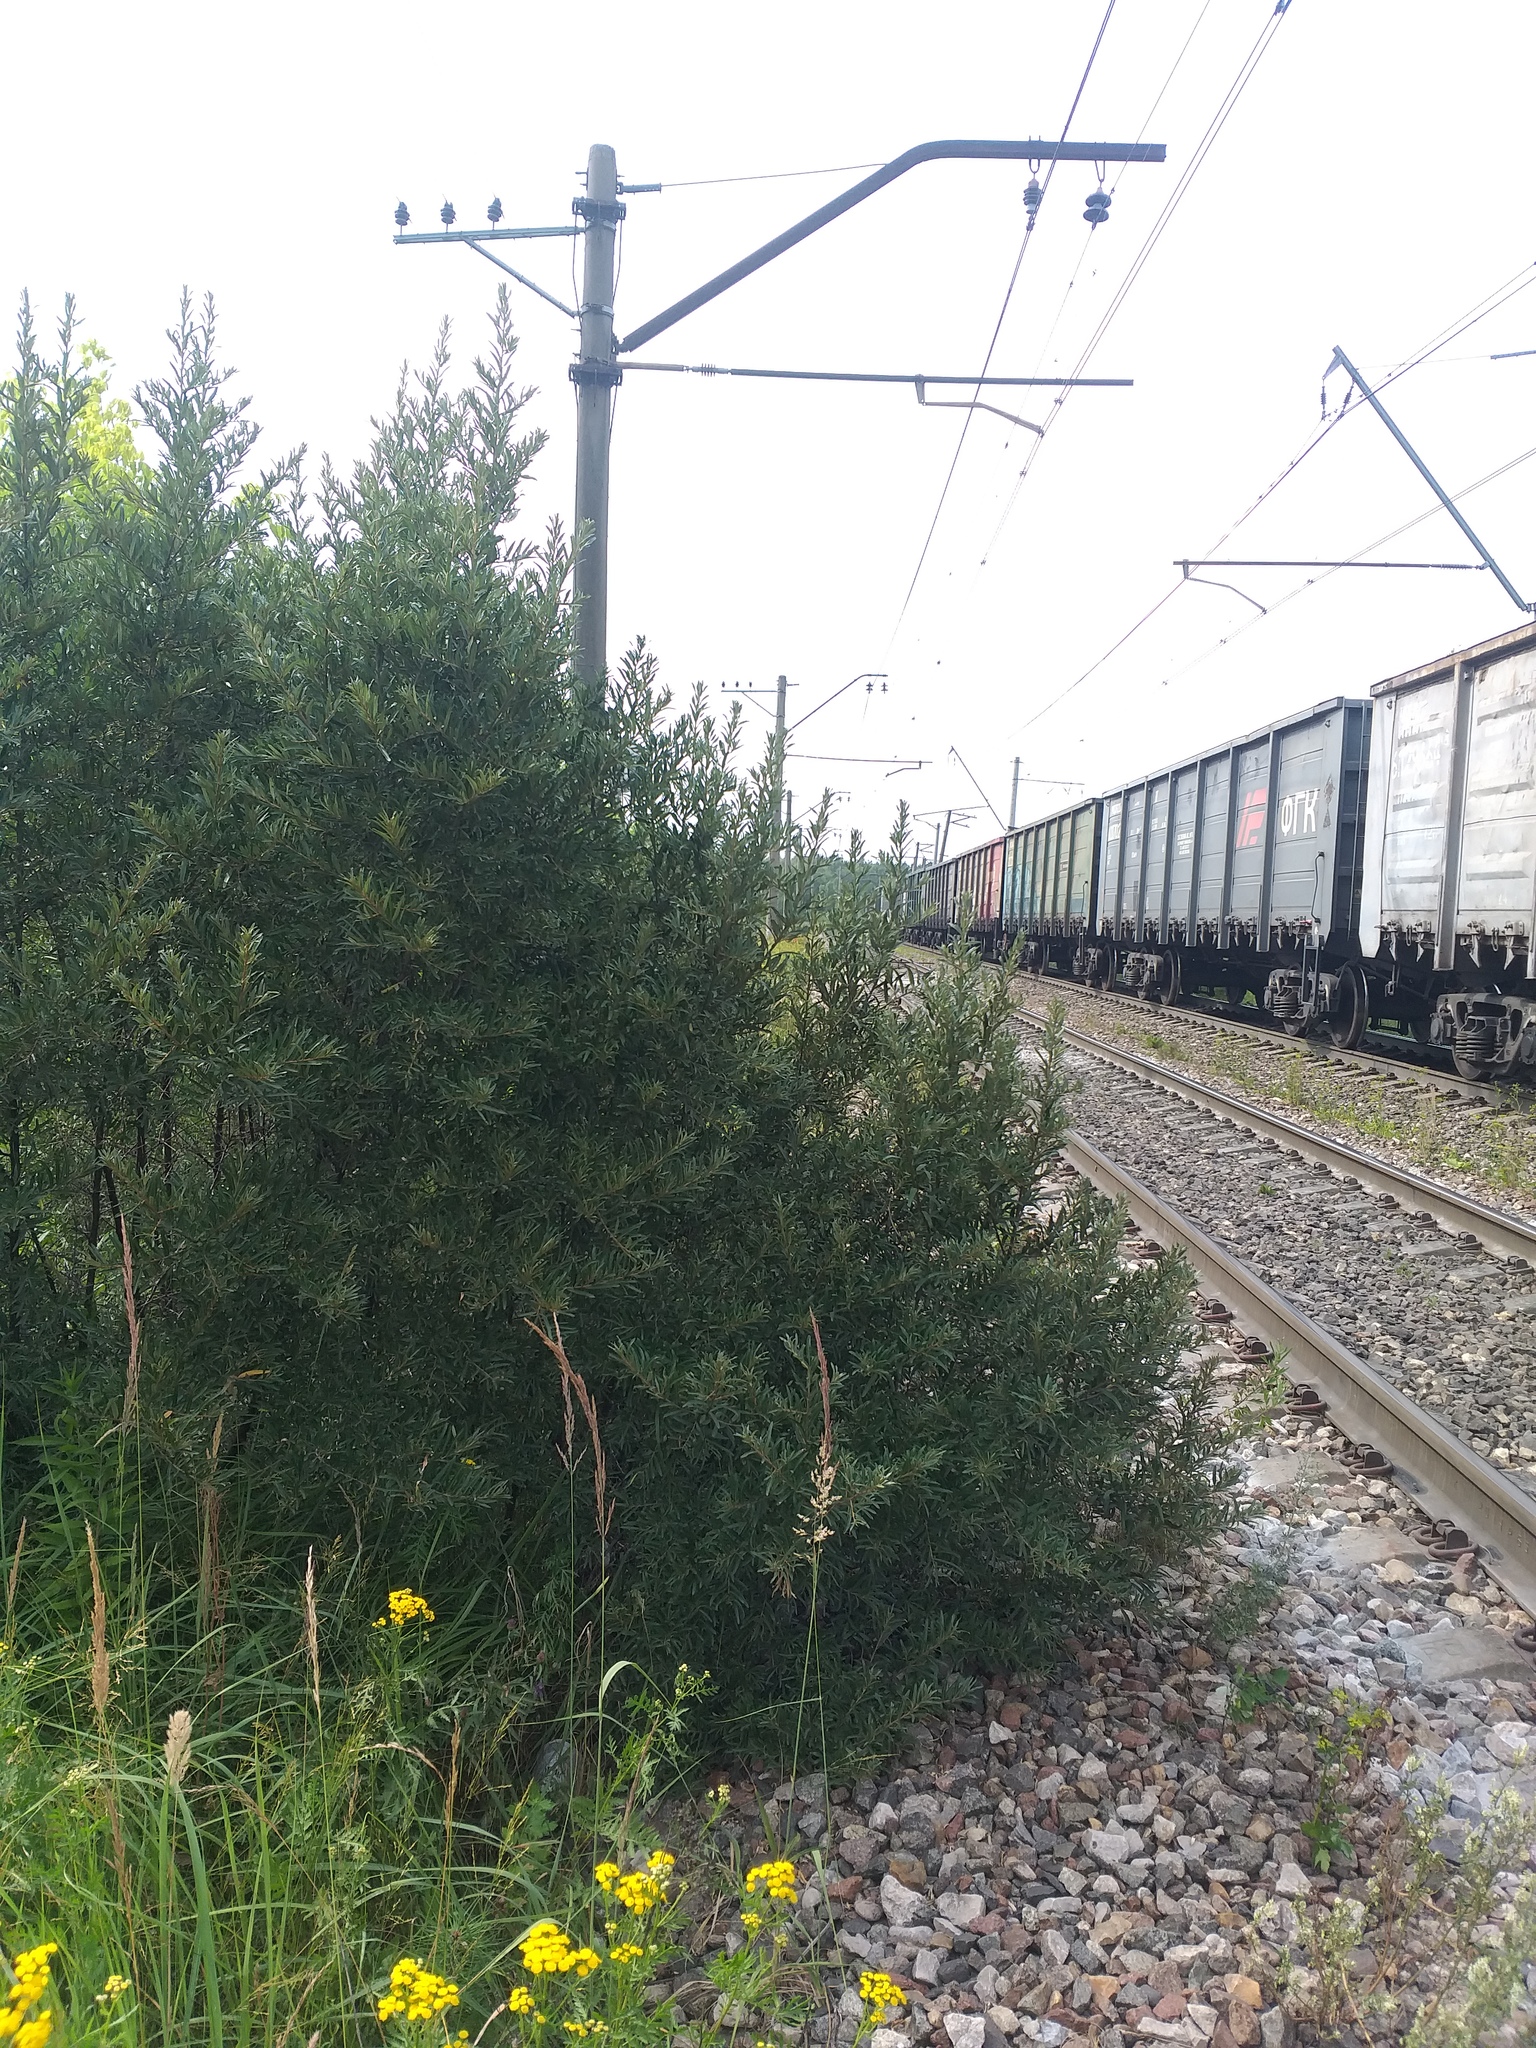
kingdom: Plantae
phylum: Tracheophyta
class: Magnoliopsida
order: Rosales
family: Elaeagnaceae
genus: Hippophae
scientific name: Hippophae rhamnoides
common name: Sea-buckthorn
